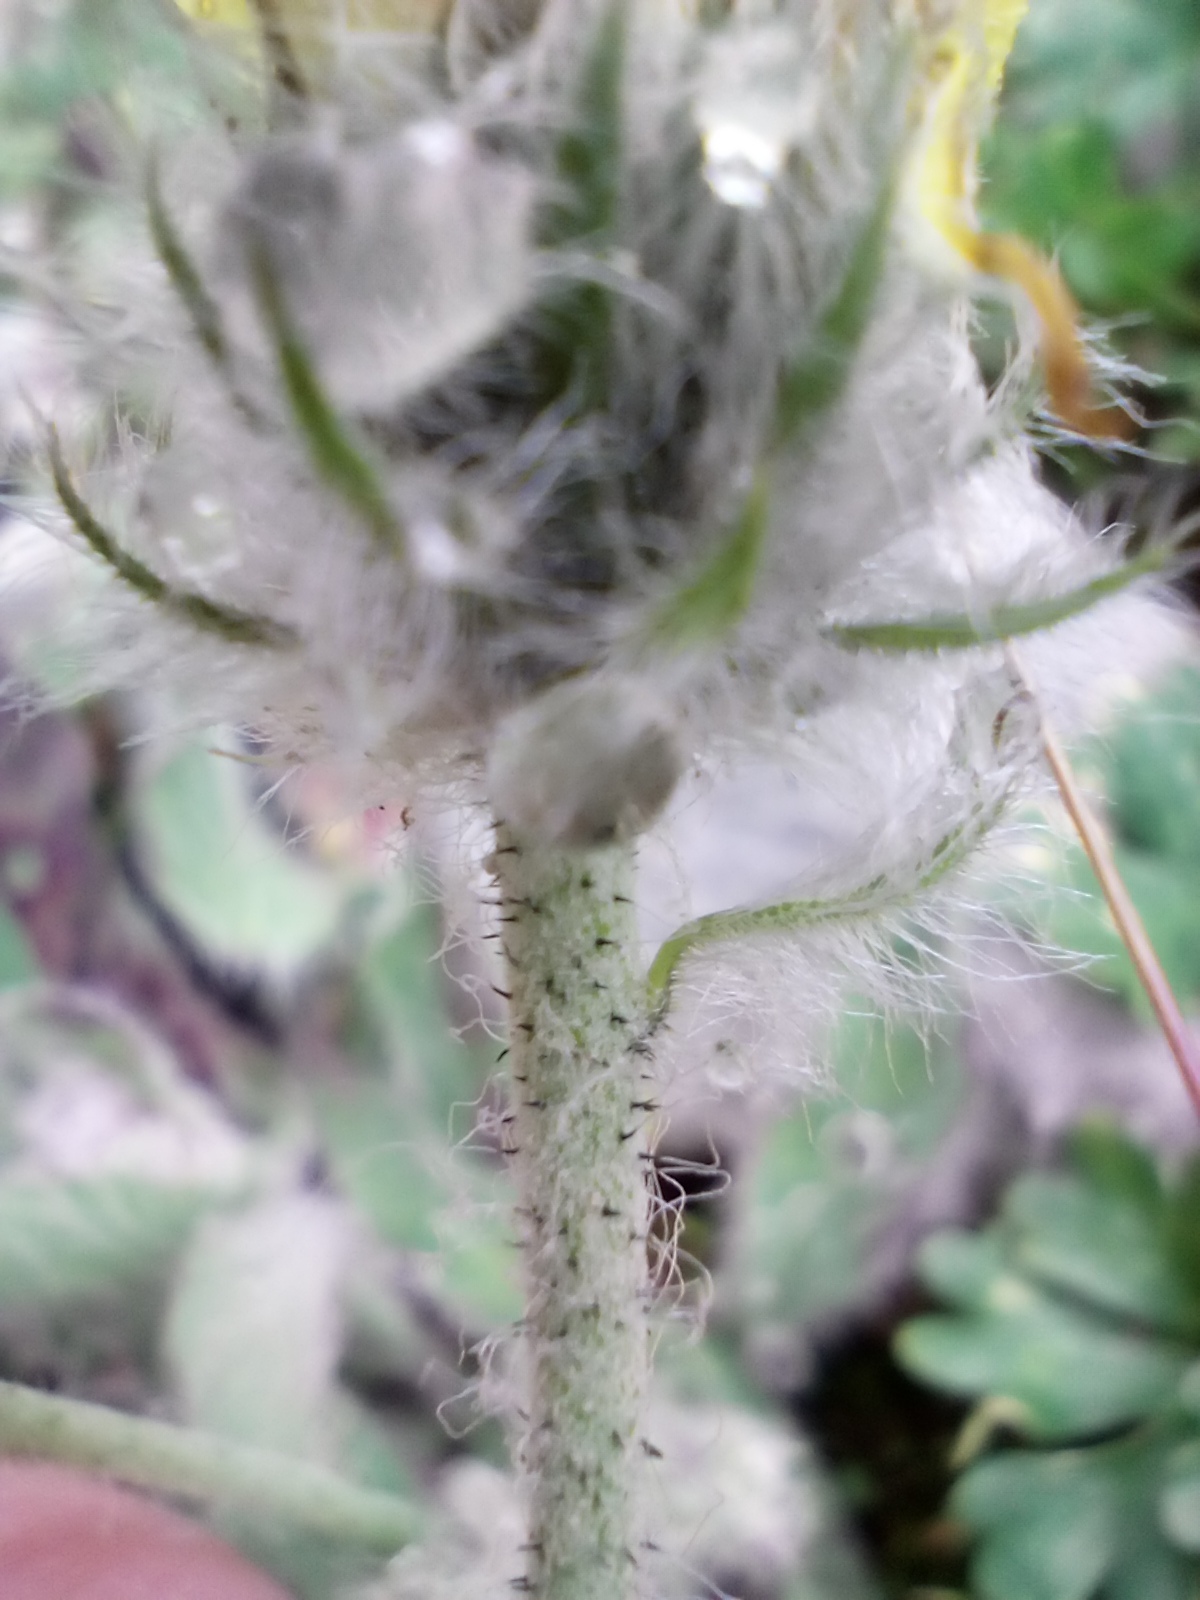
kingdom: Plantae
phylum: Tracheophyta
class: Magnoliopsida
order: Asterales
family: Asteraceae
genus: Hieracium
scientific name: Hieracium villosum
